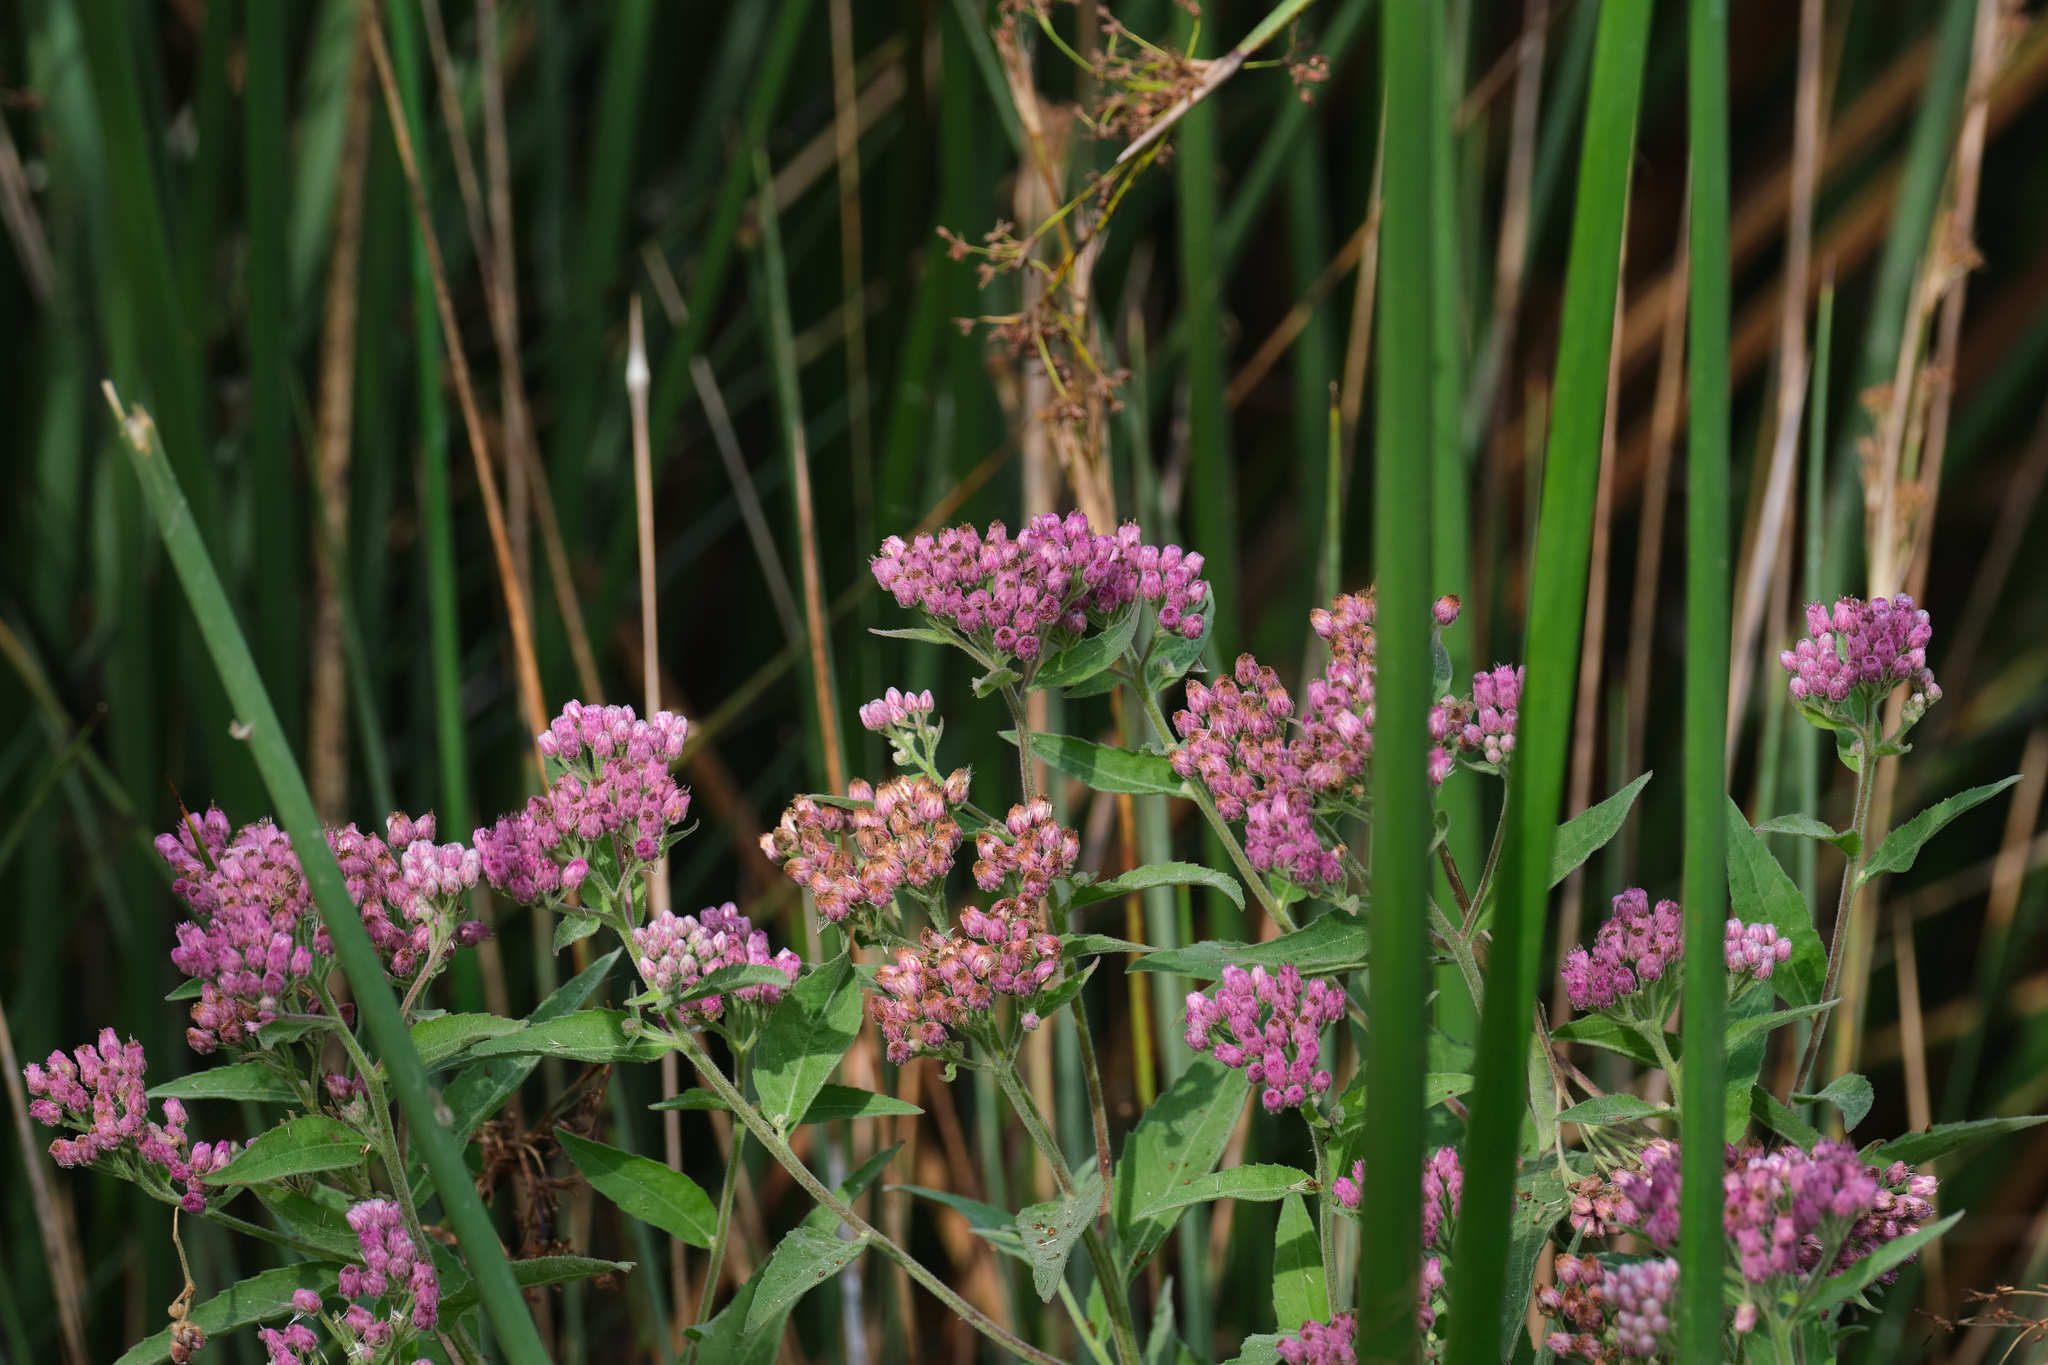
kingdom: Plantae
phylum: Tracheophyta
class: Magnoliopsida
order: Asterales
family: Asteraceae
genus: Pluchea
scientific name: Pluchea odorata
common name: Saltmarsh fleabane
